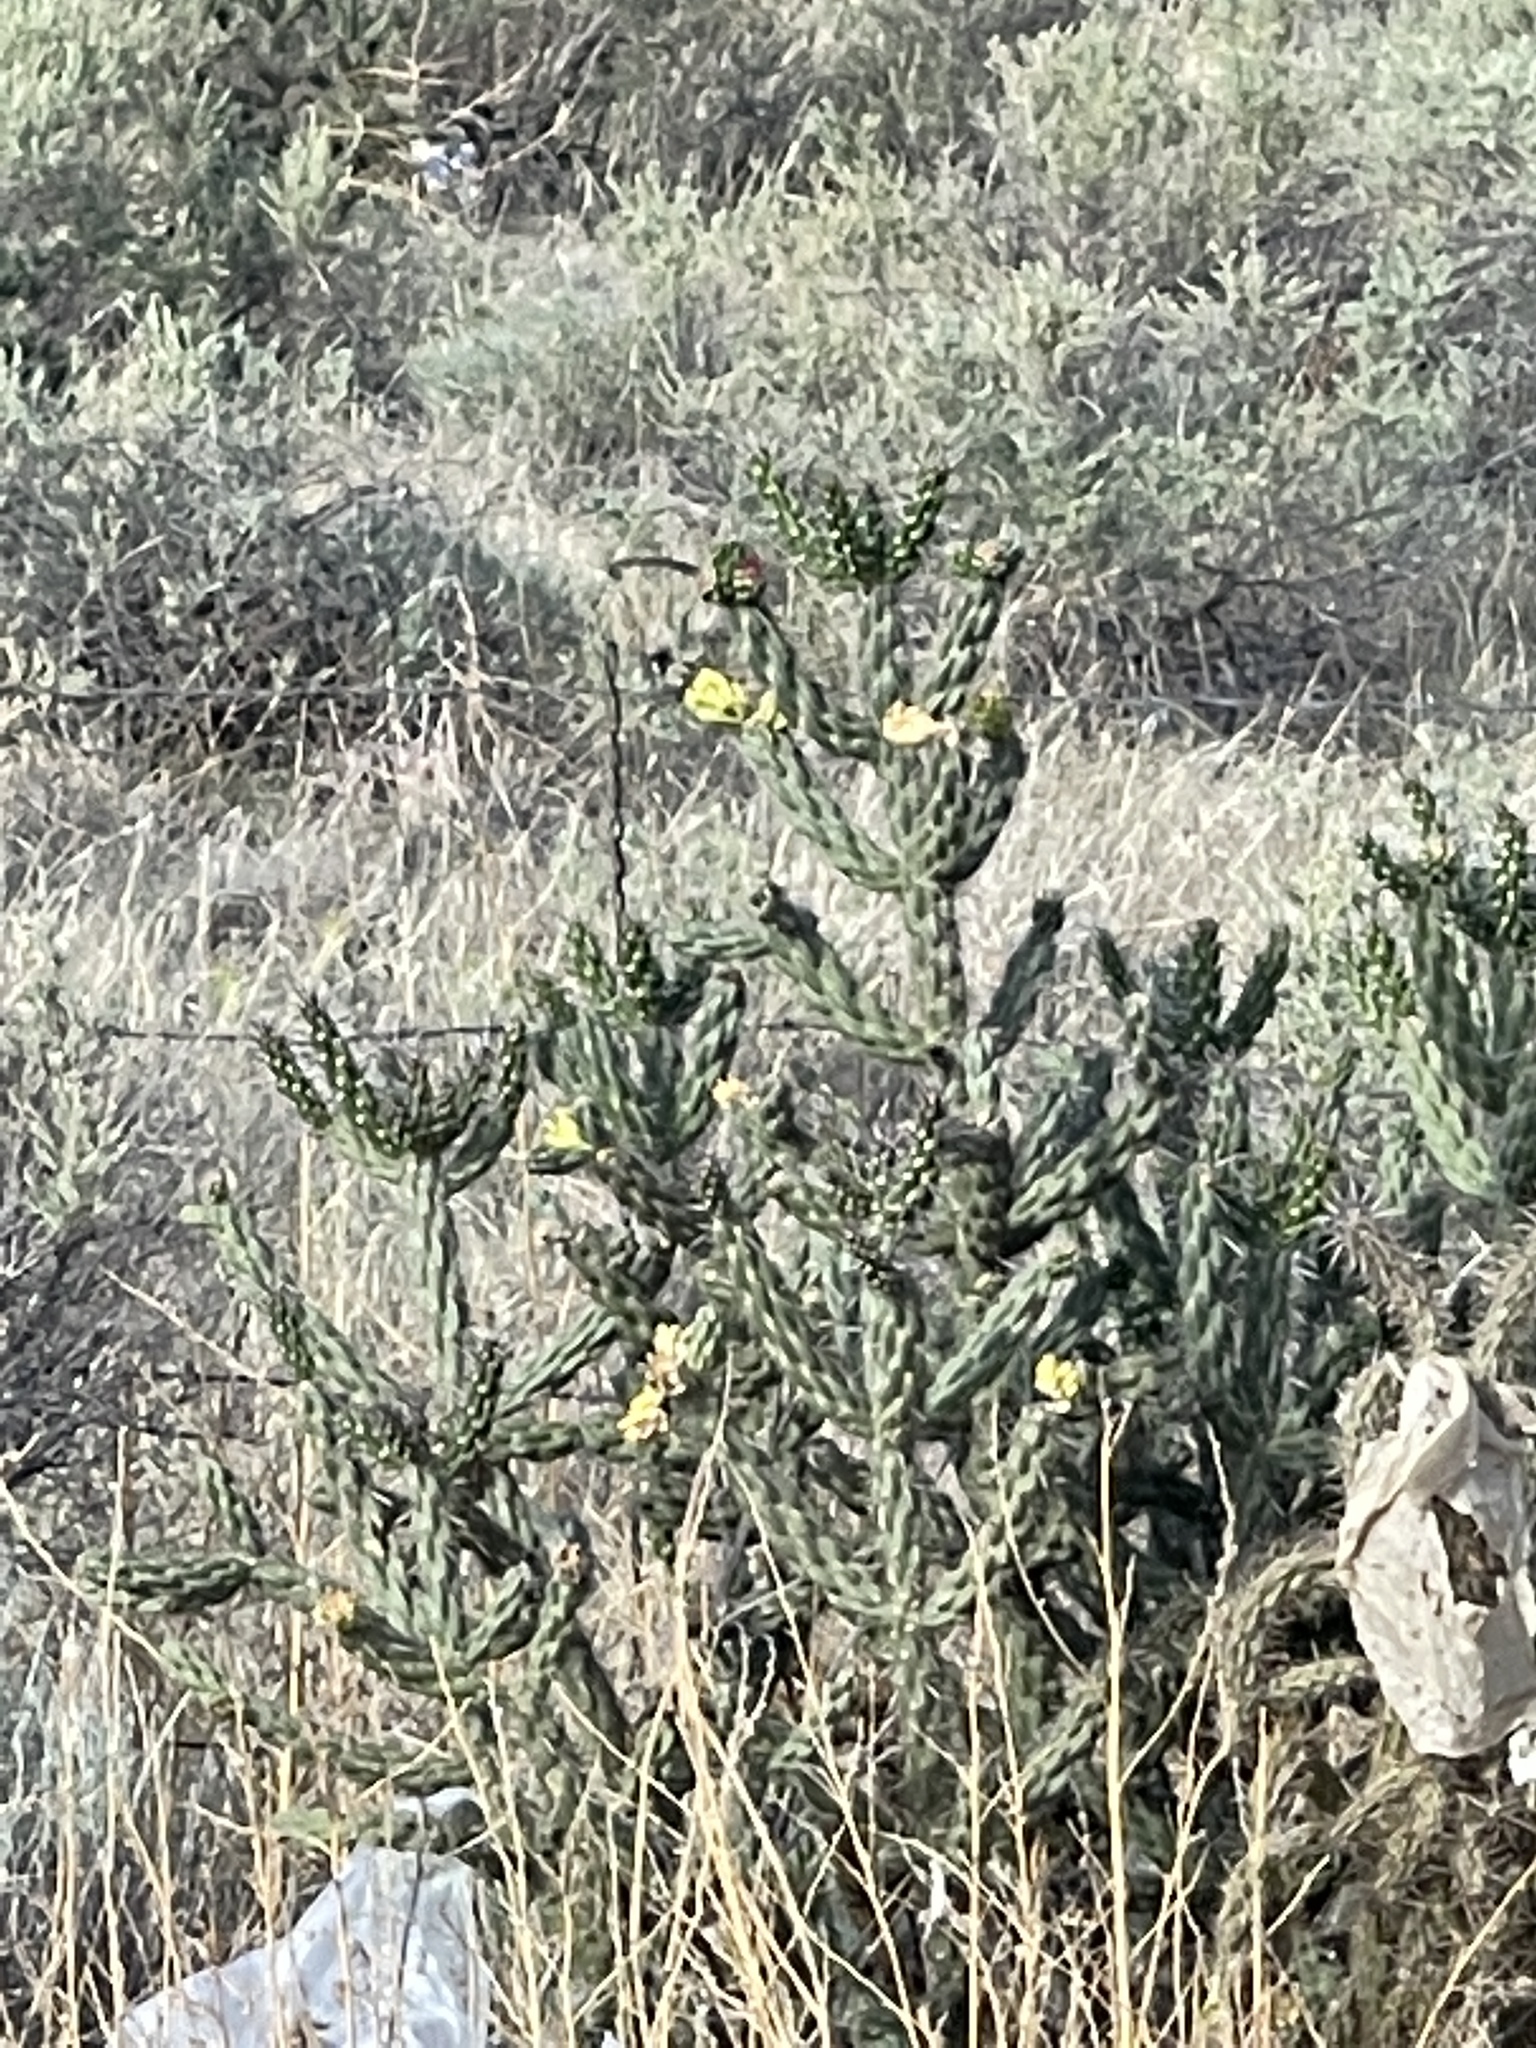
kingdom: Plantae
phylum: Tracheophyta
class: Magnoliopsida
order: Caryophyllales
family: Cactaceae
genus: Cylindropuntia
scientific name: Cylindropuntia imbricata
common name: Candelabrum cactus
